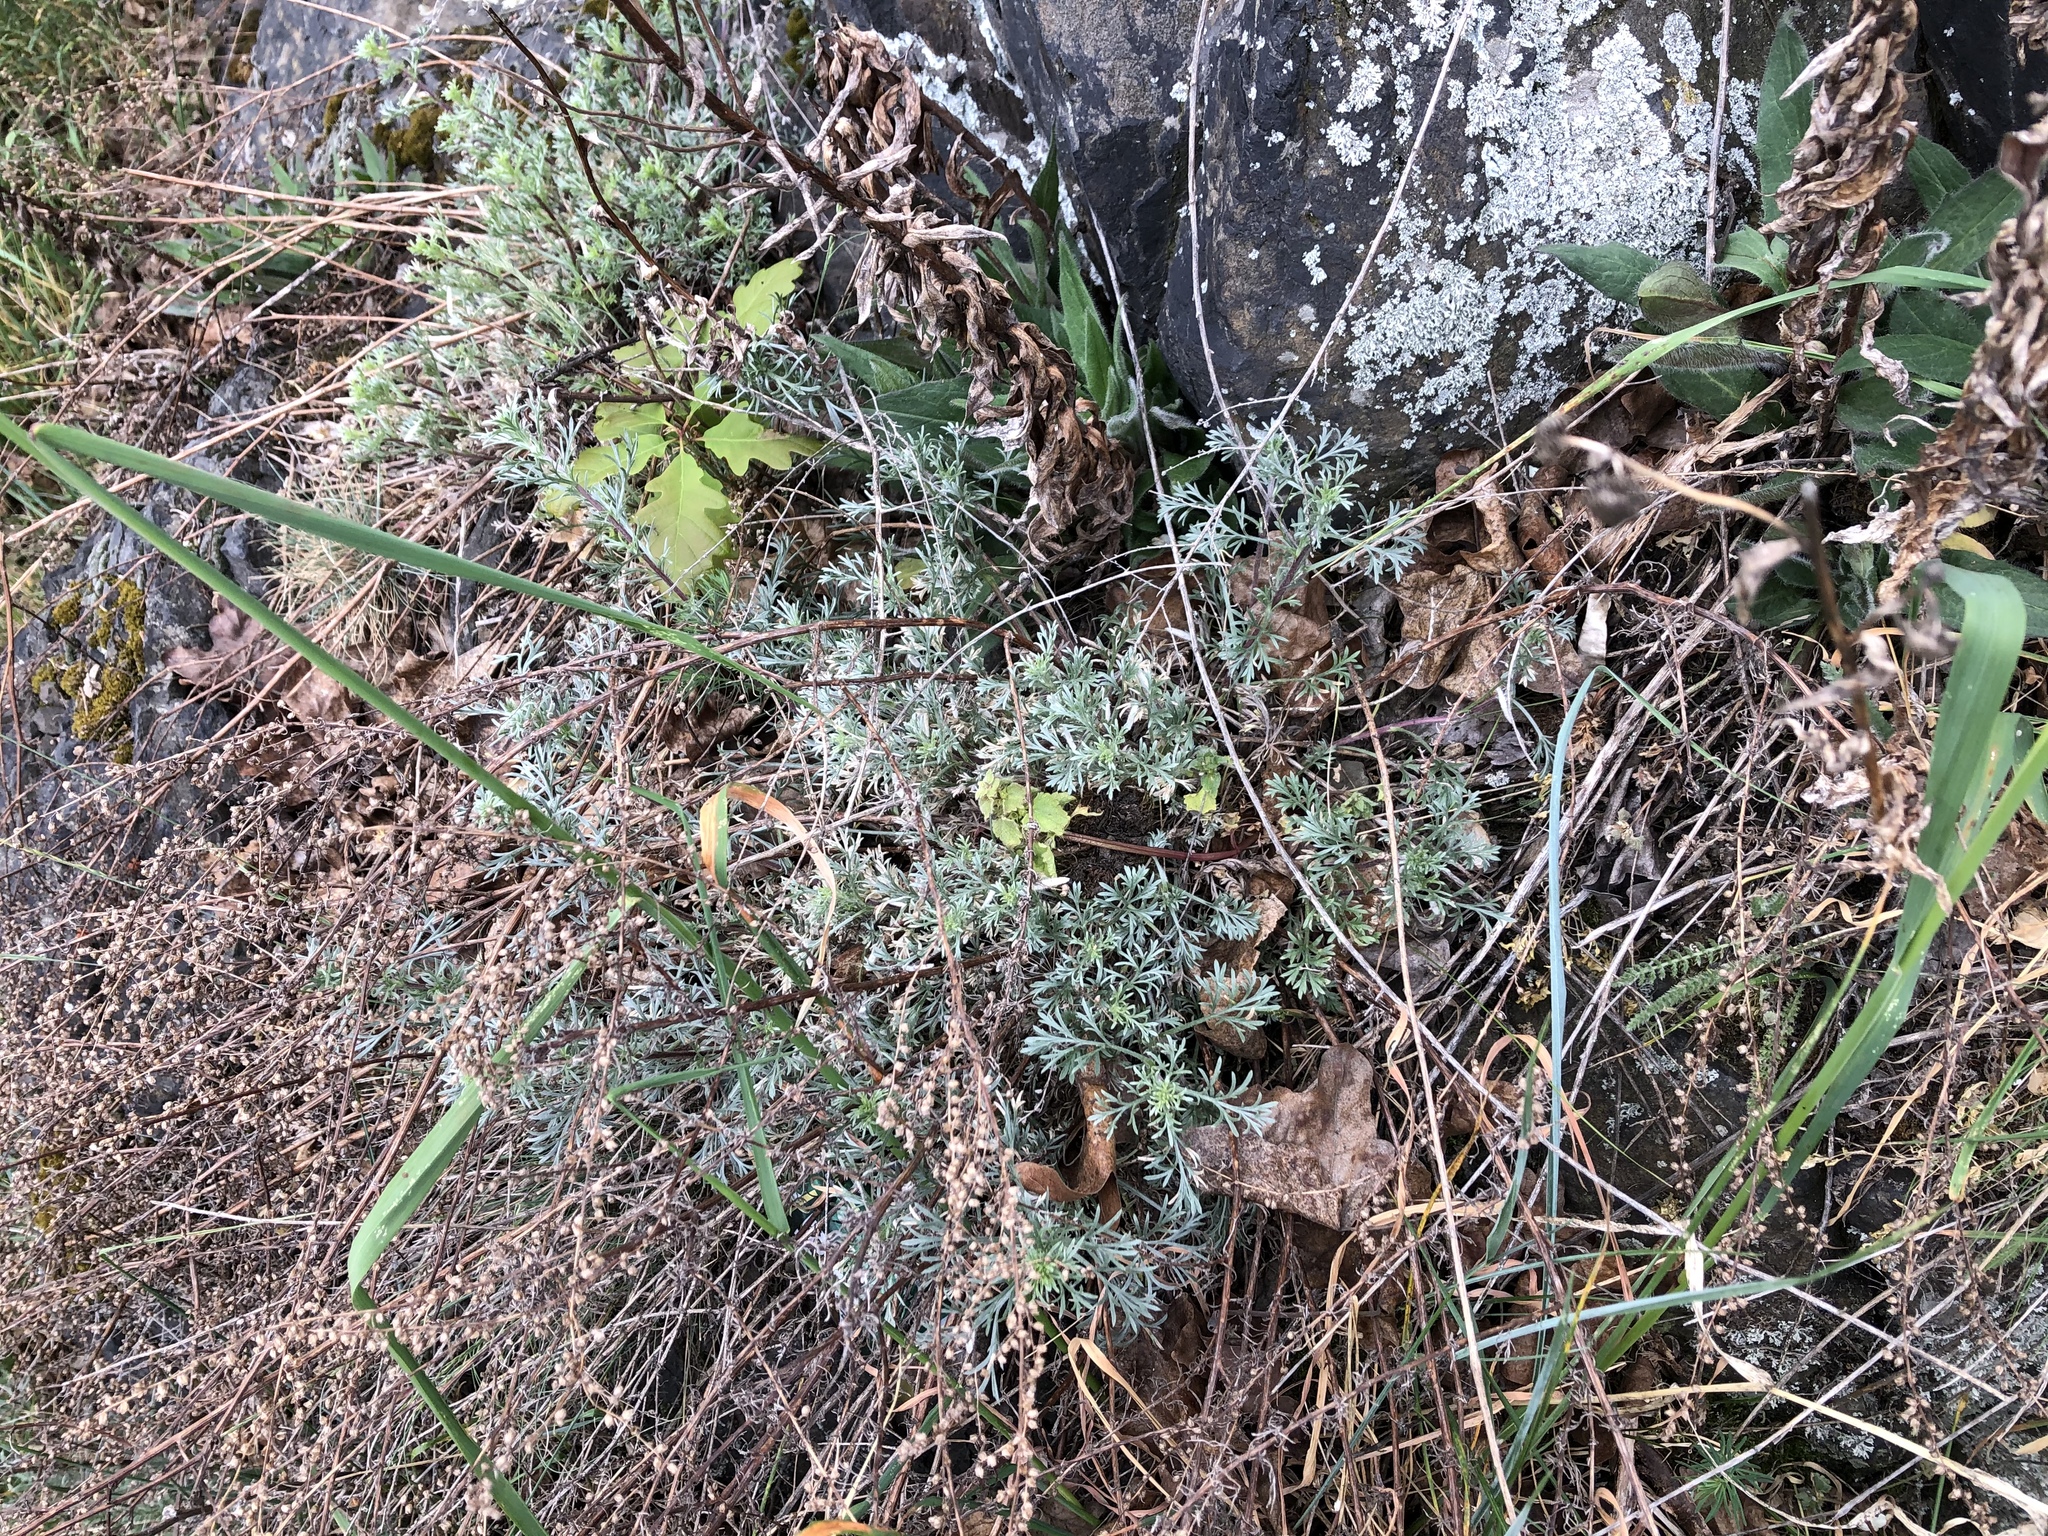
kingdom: Plantae
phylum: Tracheophyta
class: Magnoliopsida
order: Asterales
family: Asteraceae
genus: Artemisia
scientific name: Artemisia campestris
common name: Field wormwood
